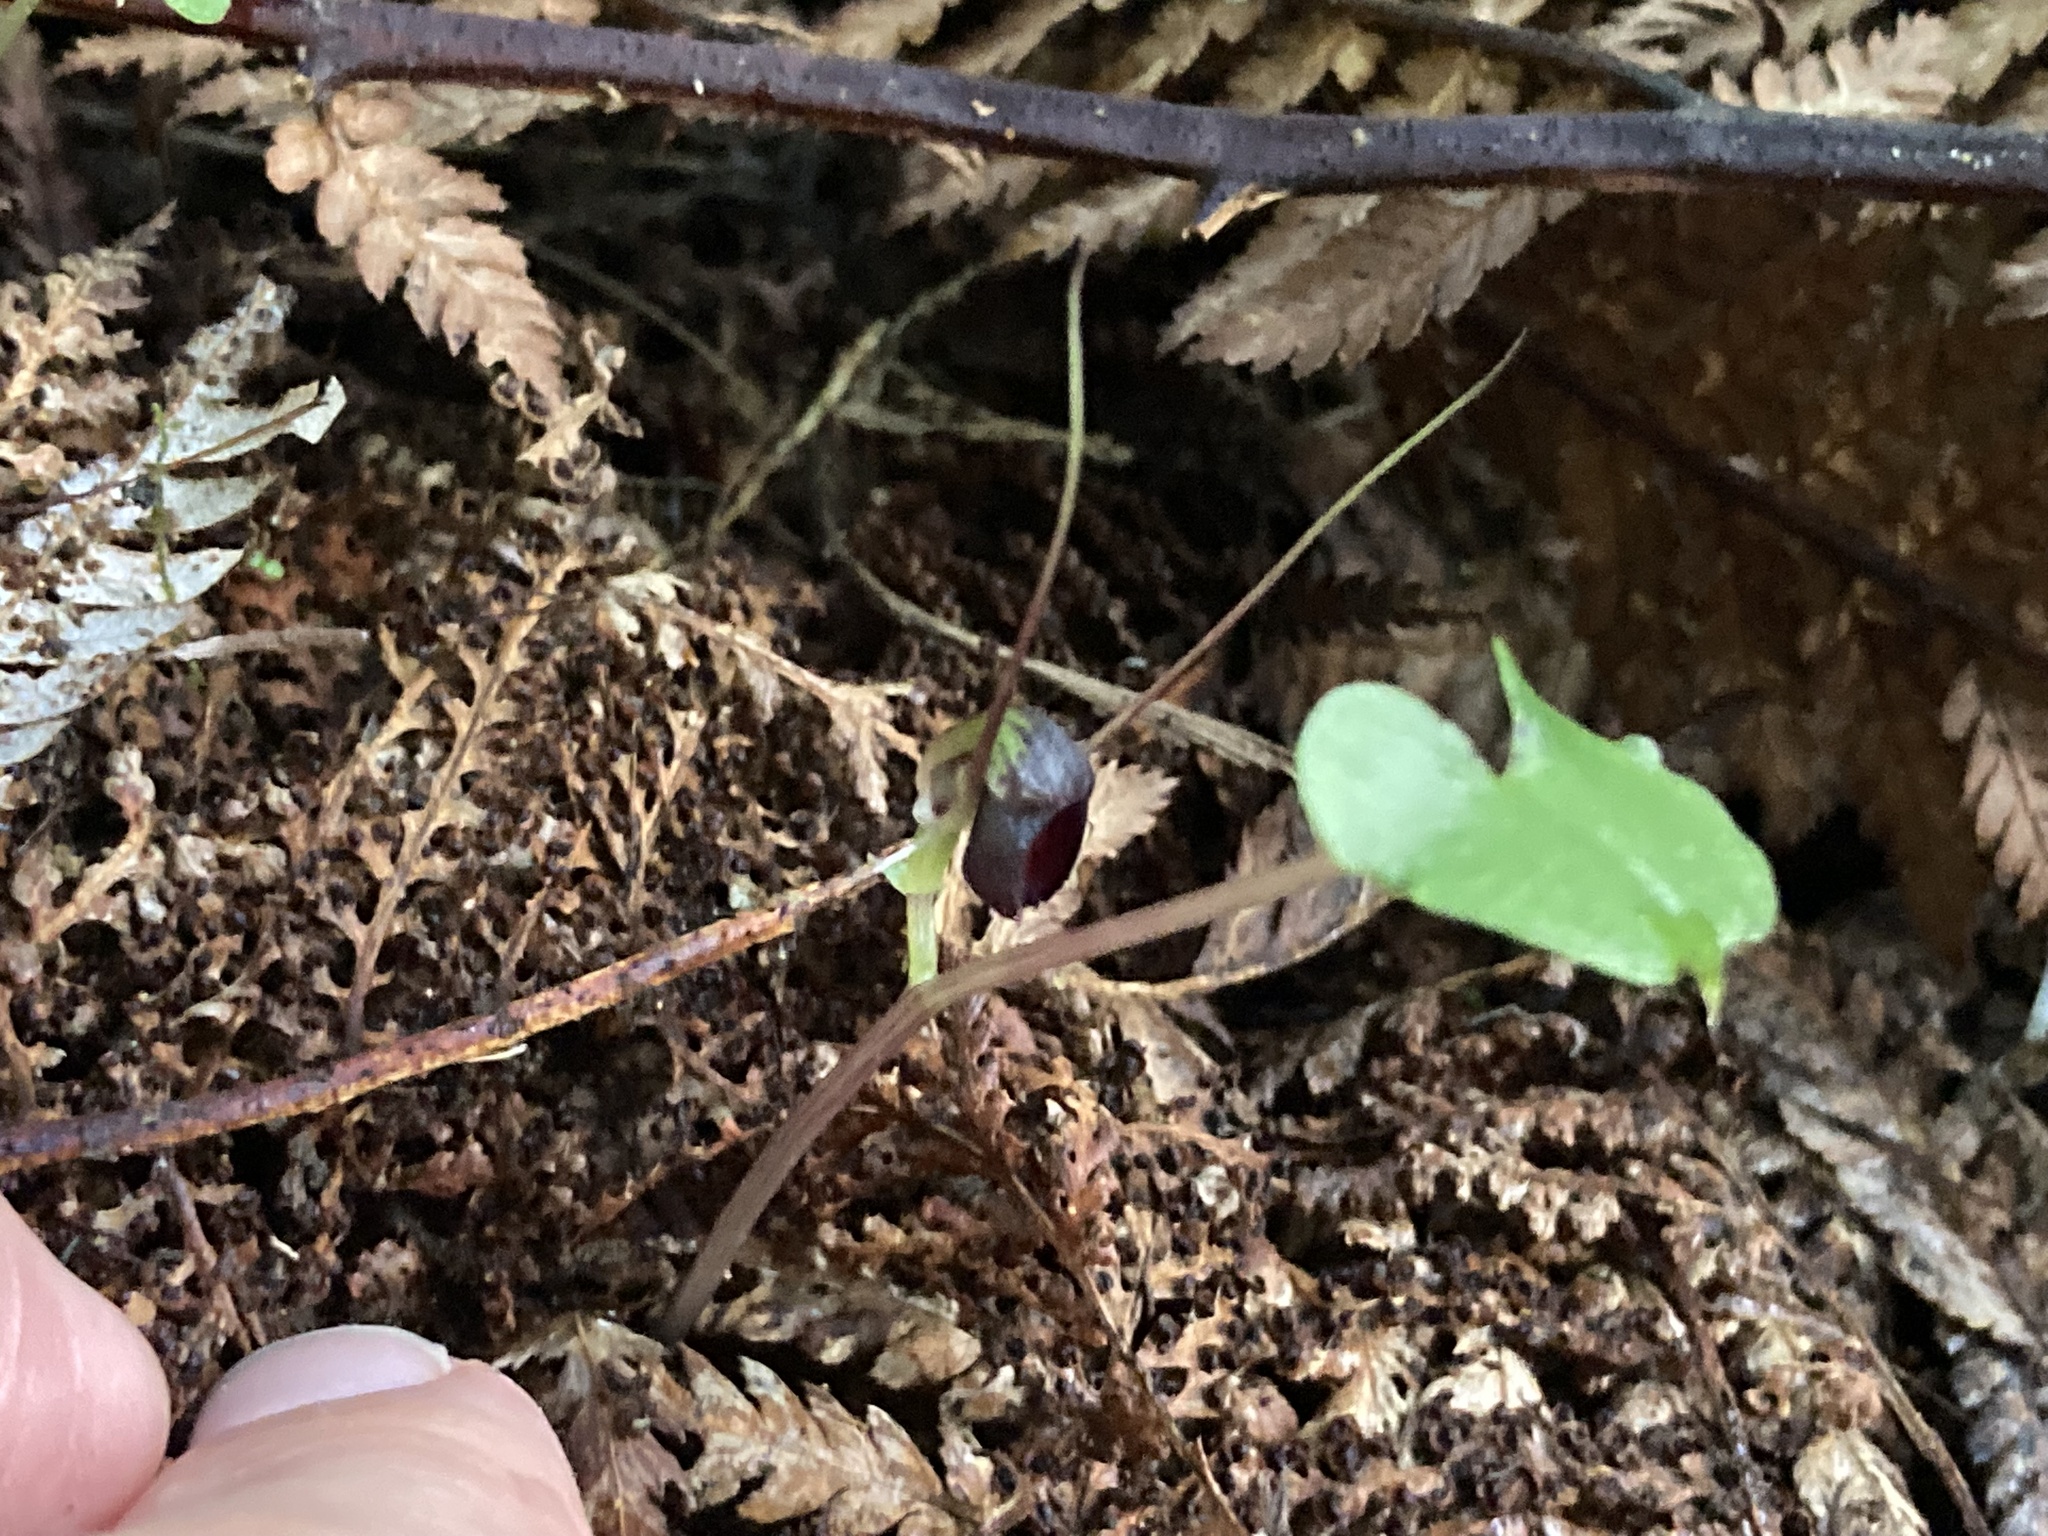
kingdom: Plantae
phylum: Tracheophyta
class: Liliopsida
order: Asparagales
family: Orchidaceae
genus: Corybas
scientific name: Corybas trilobus
